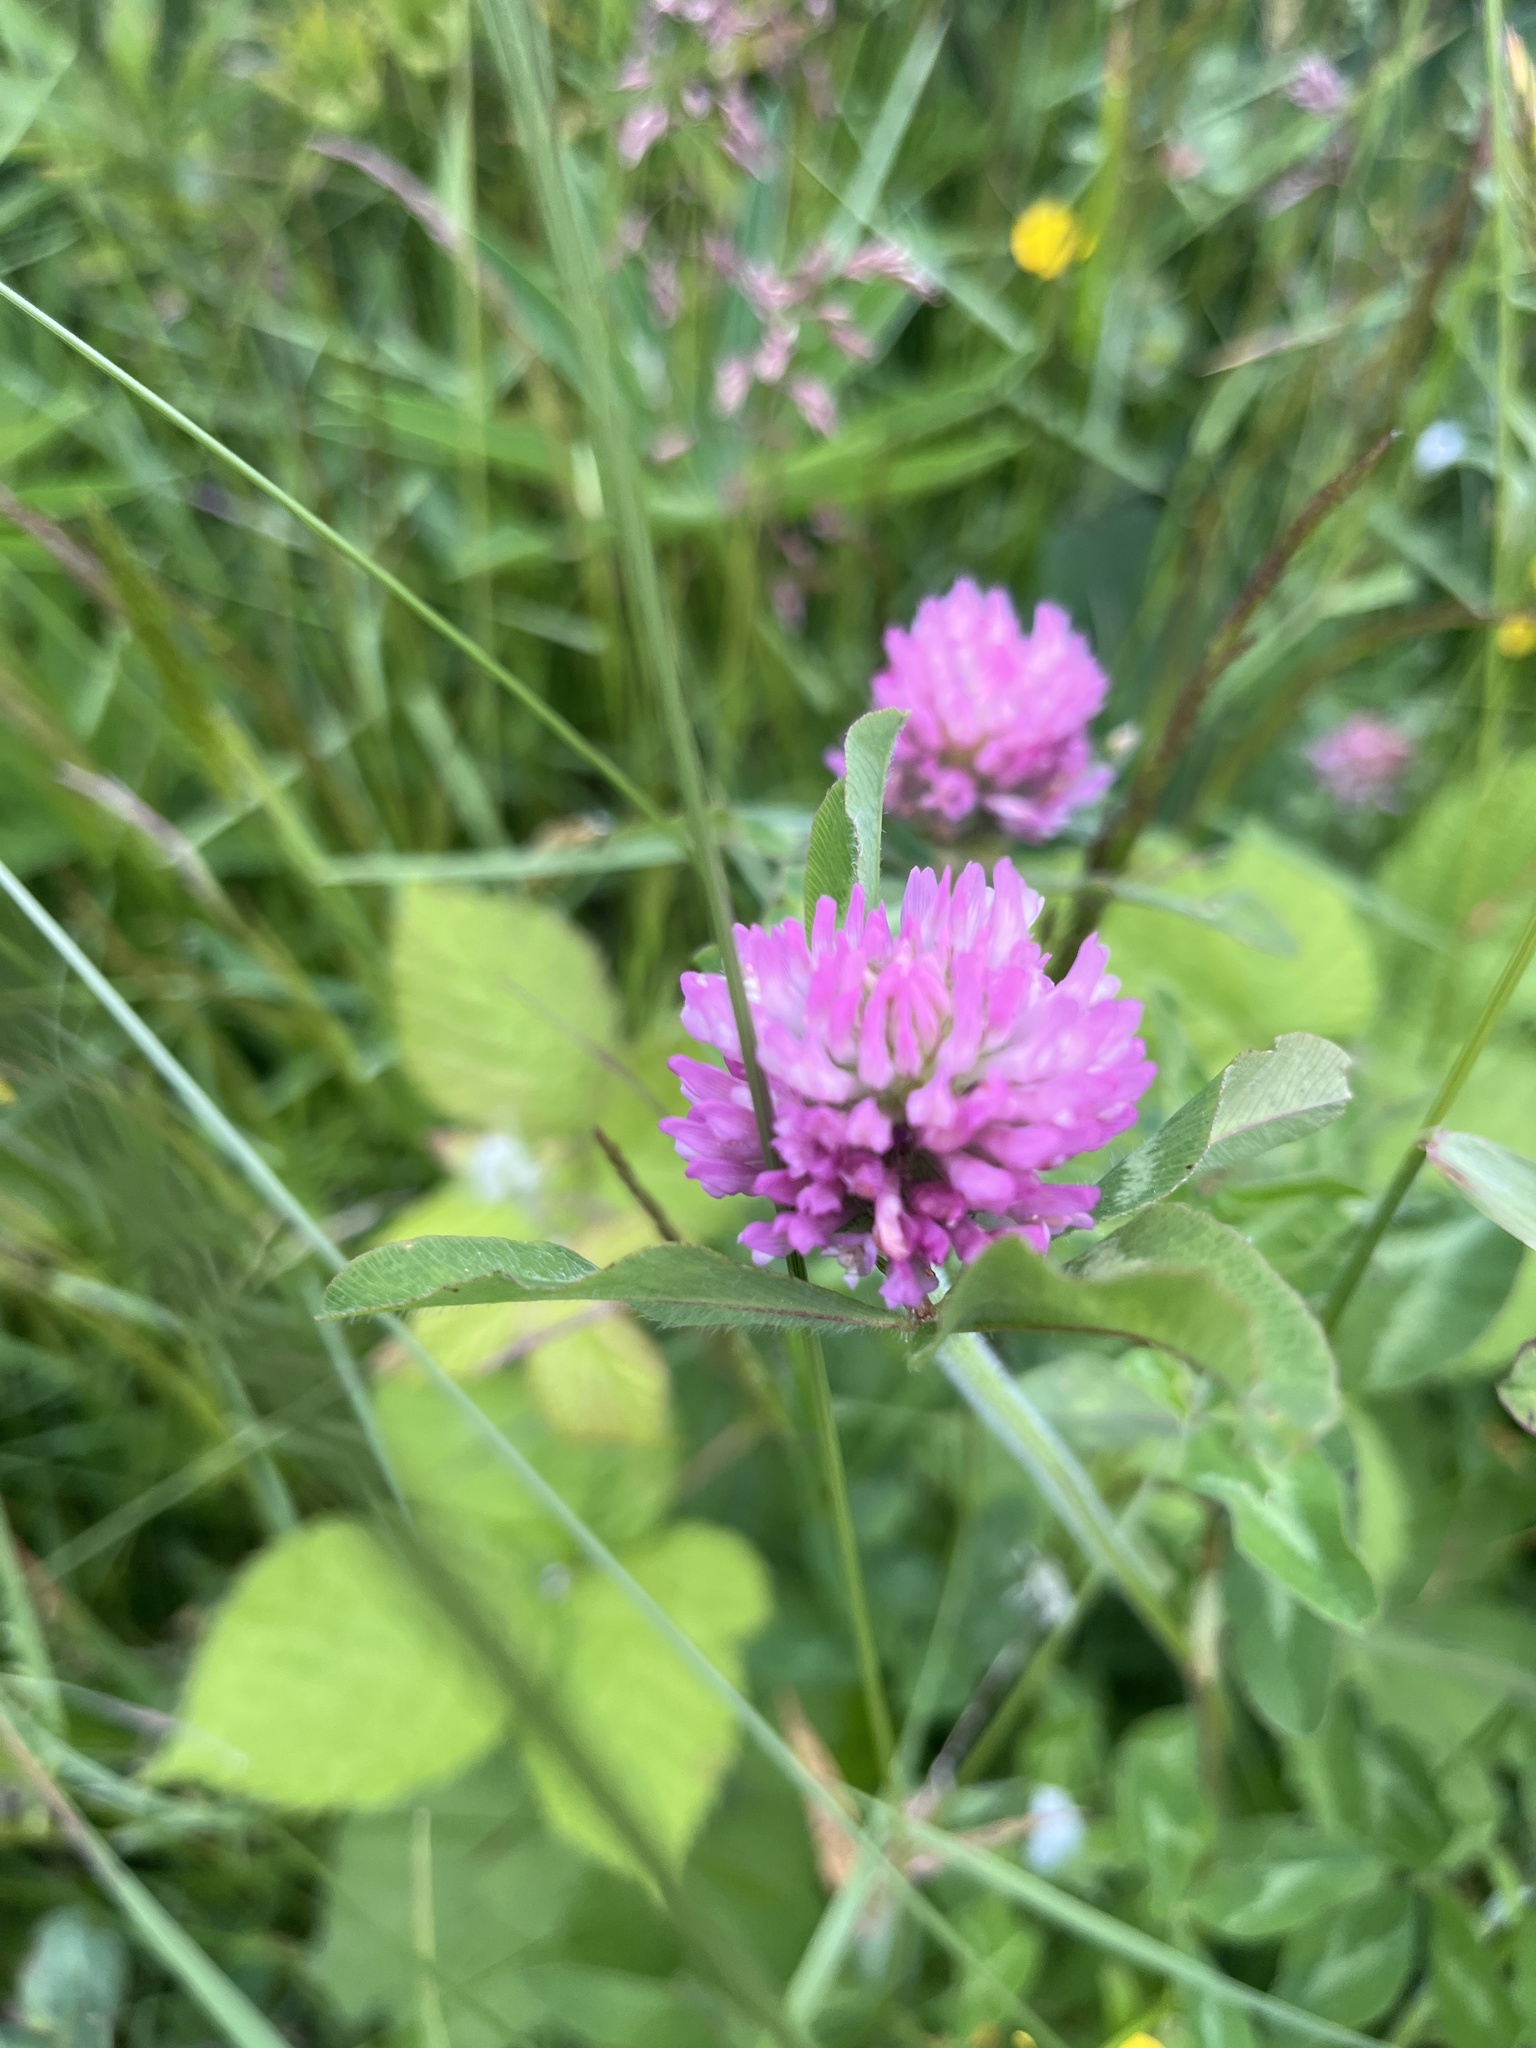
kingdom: Plantae
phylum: Tracheophyta
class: Magnoliopsida
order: Fabales
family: Fabaceae
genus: Trifolium
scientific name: Trifolium pratense
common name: Red clover
